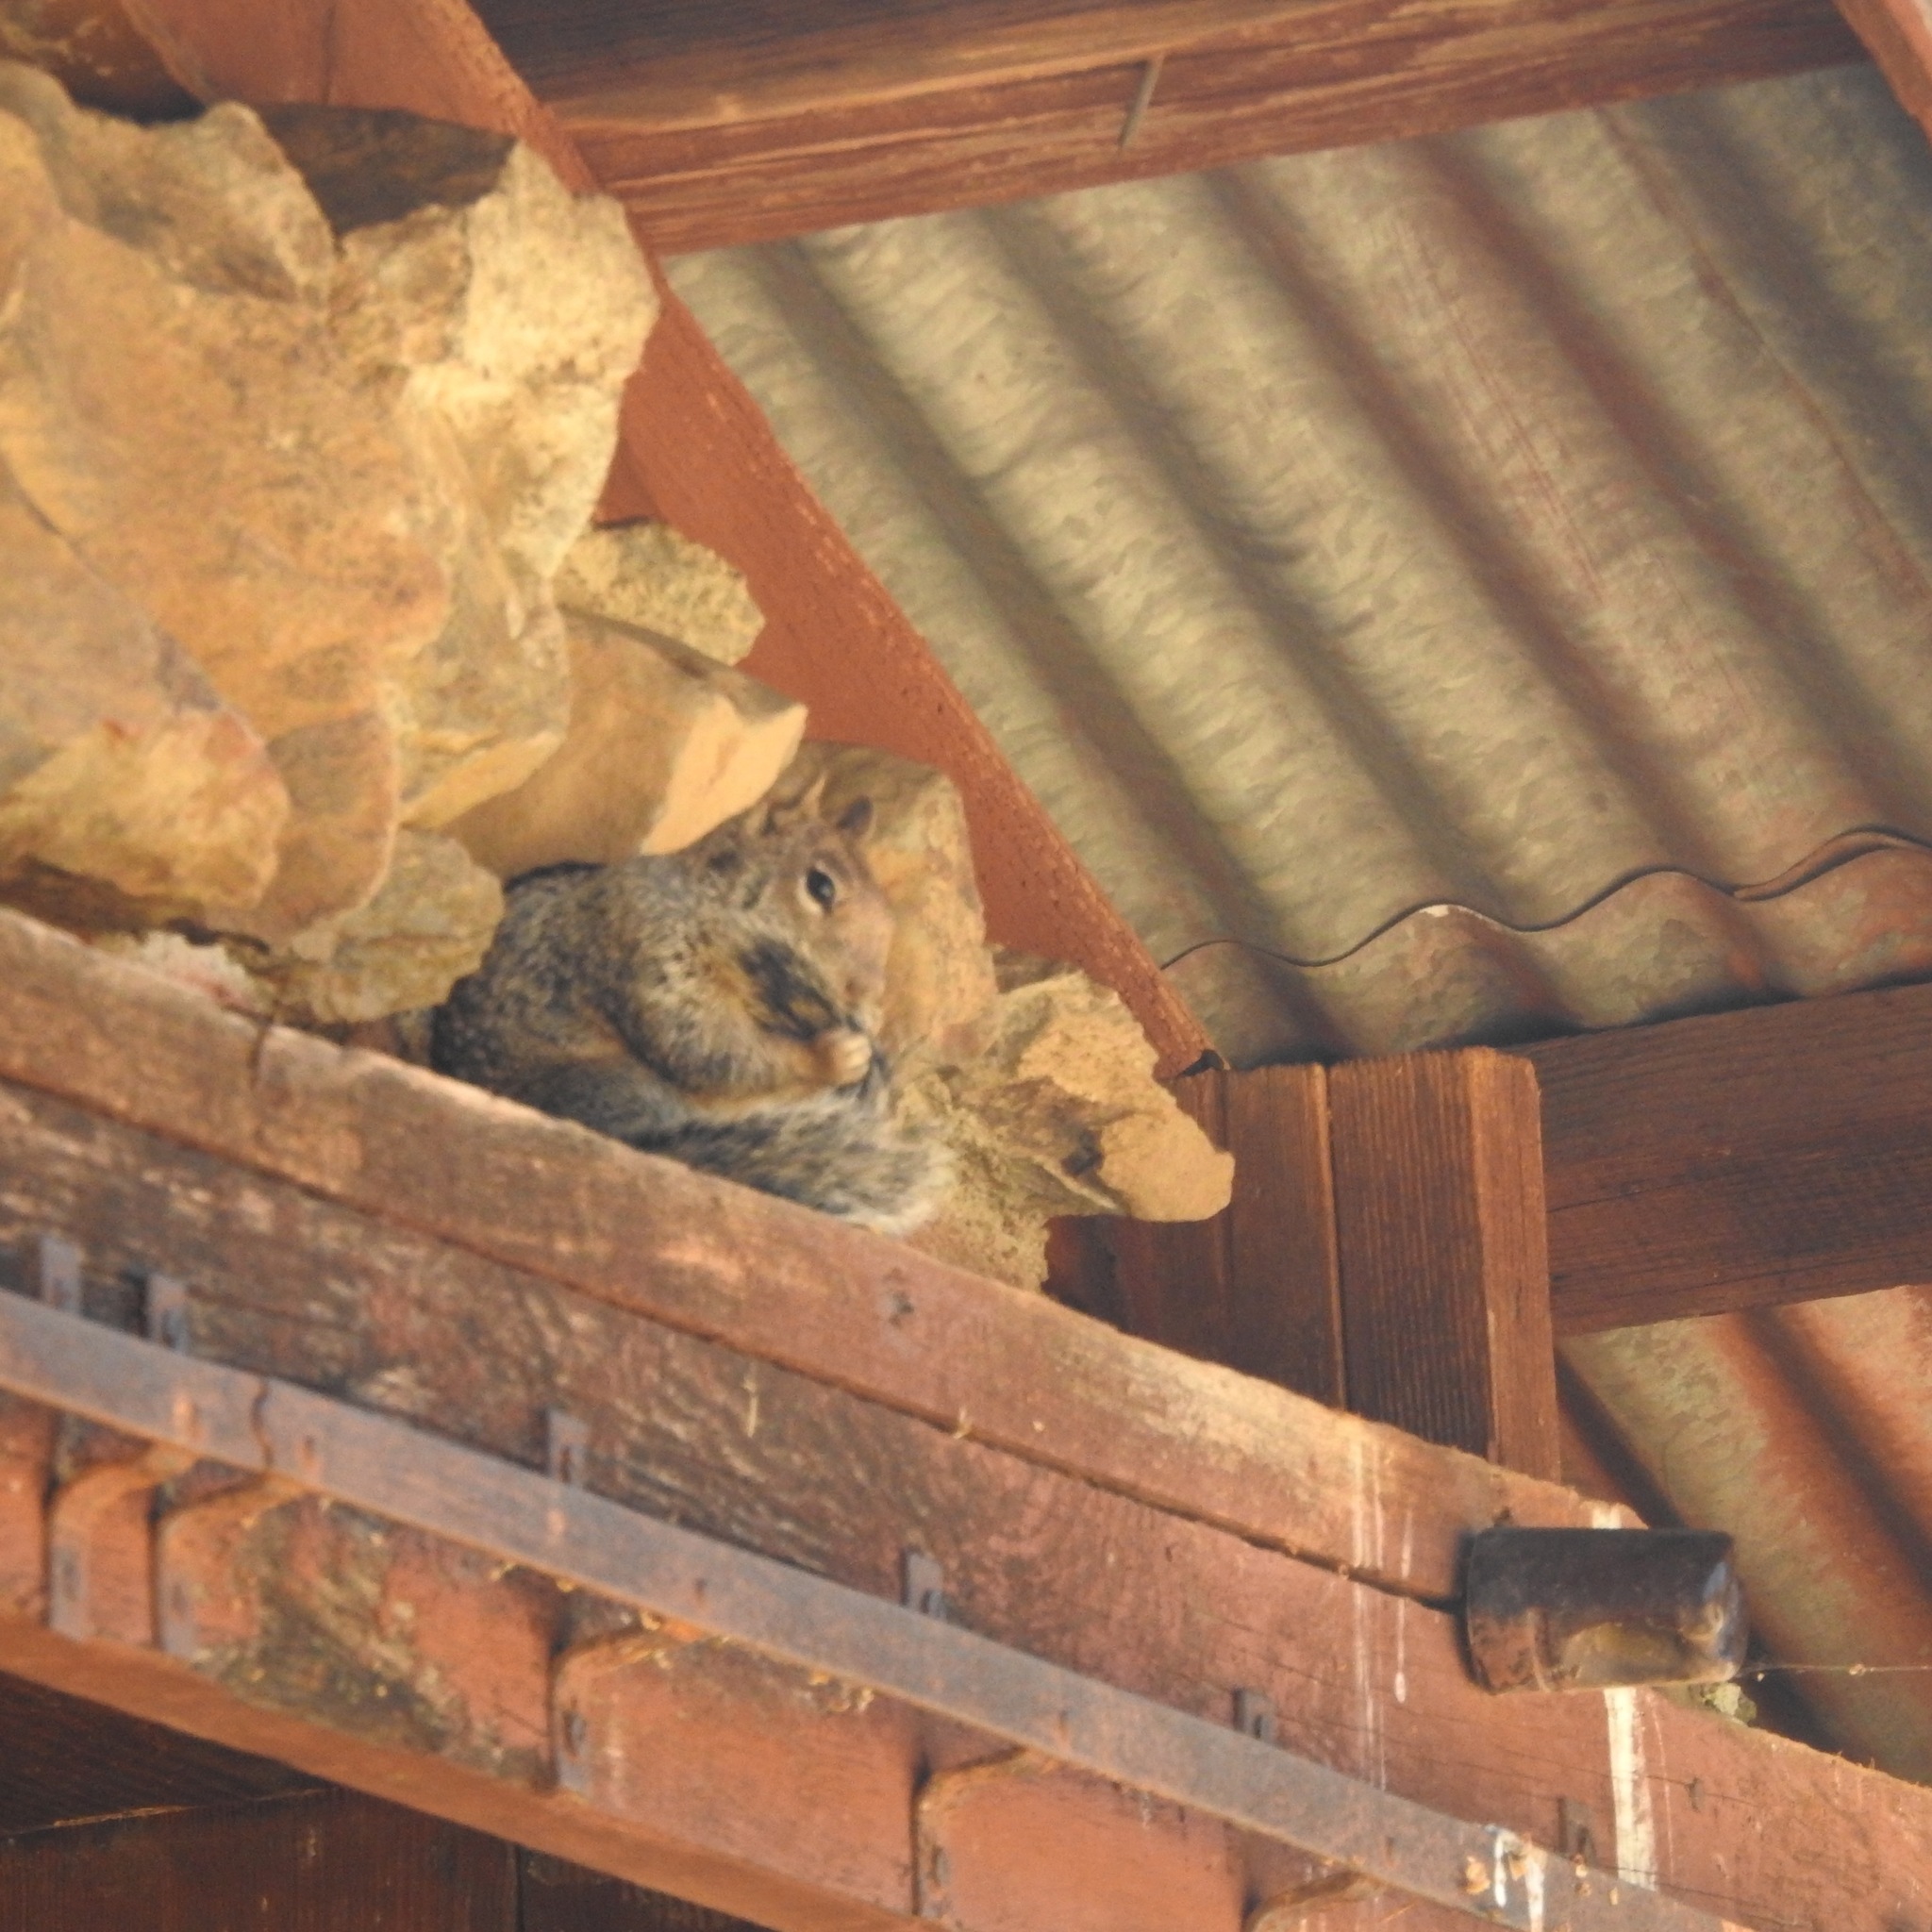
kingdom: Animalia
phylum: Chordata
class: Mammalia
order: Rodentia
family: Sciuridae
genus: Otospermophilus
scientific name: Otospermophilus beecheyi
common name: California ground squirrel
